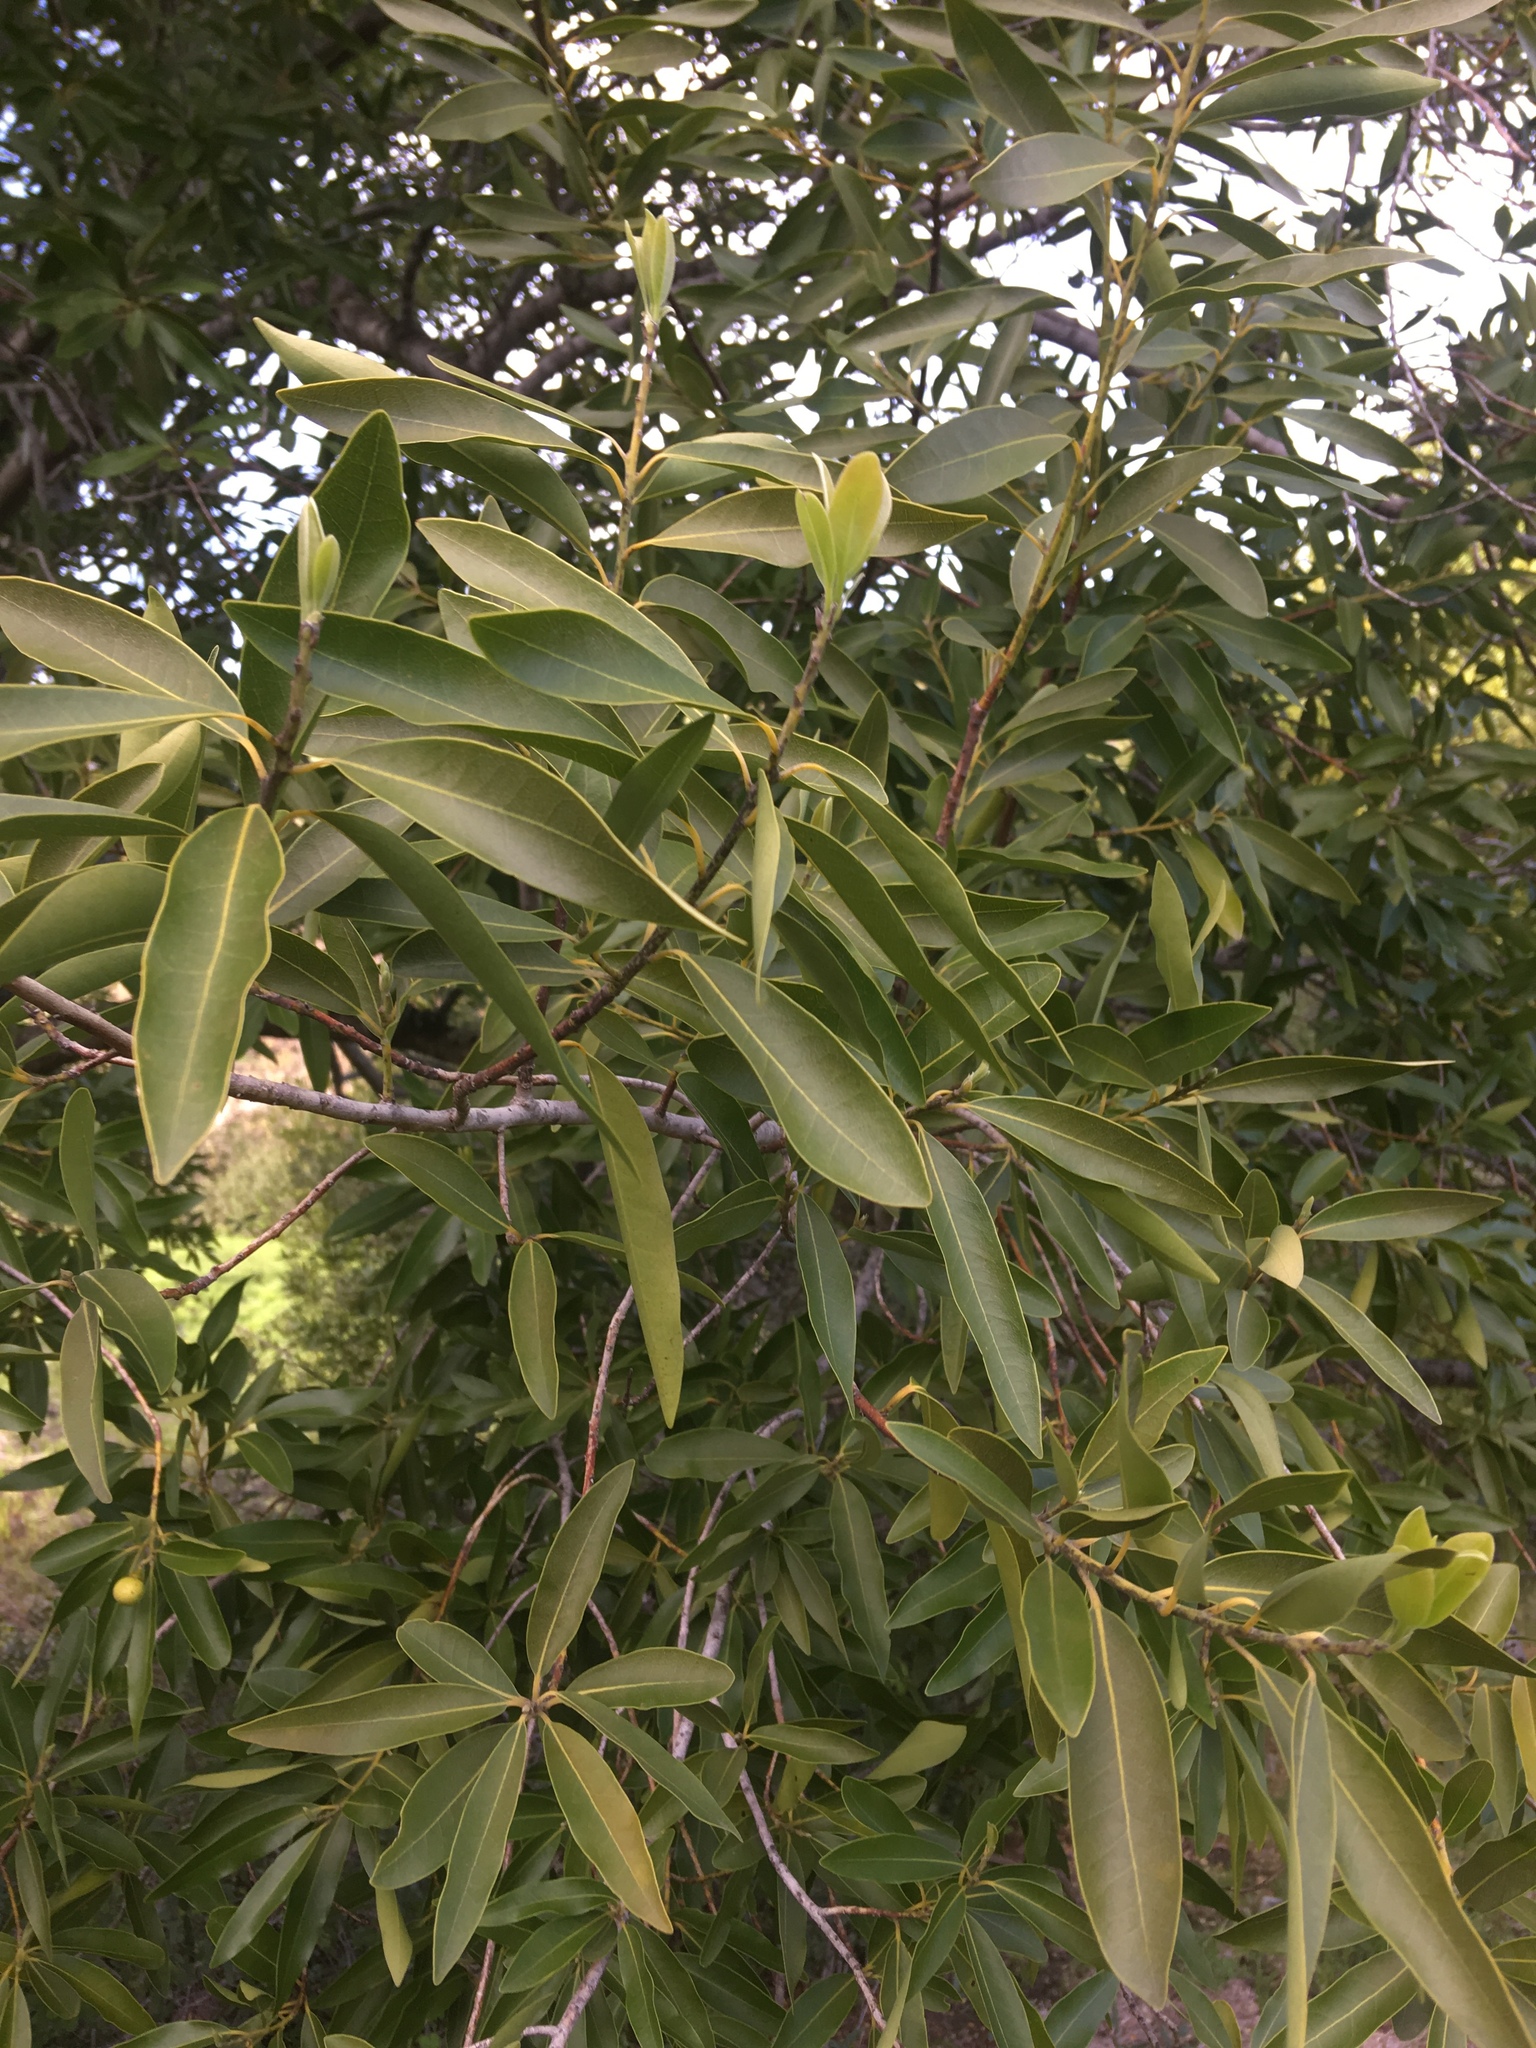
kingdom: Plantae
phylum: Tracheophyta
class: Magnoliopsida
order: Laurales
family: Lauraceae
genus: Umbellularia
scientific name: Umbellularia californica
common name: California bay
